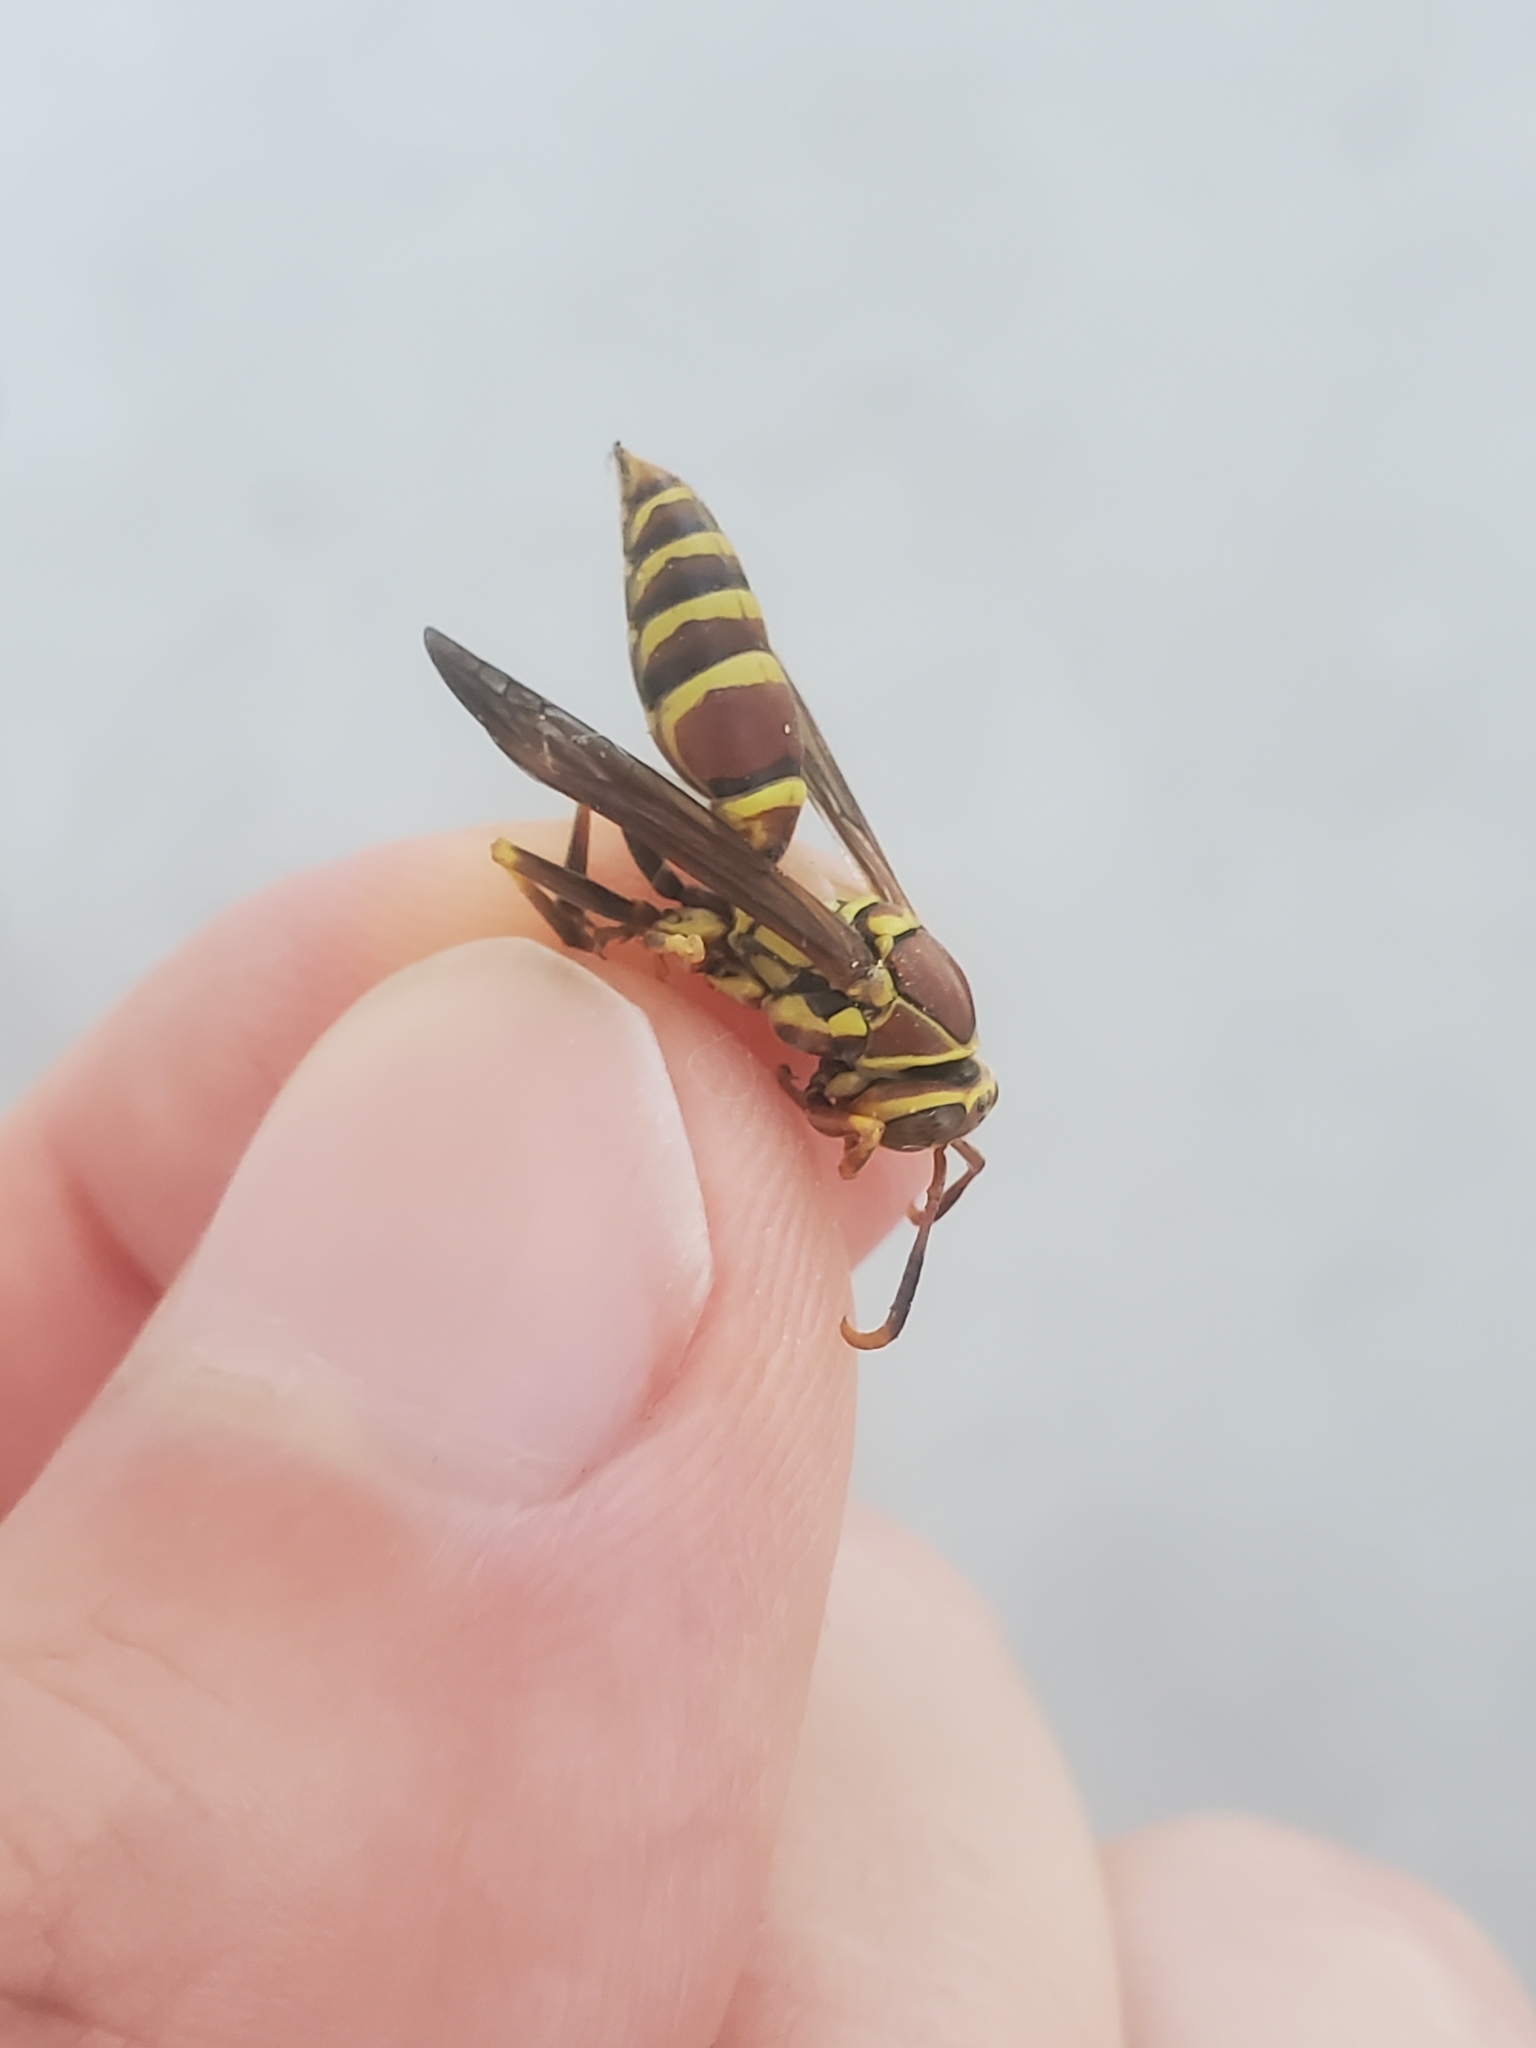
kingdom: Animalia
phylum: Arthropoda
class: Insecta
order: Hymenoptera
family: Eumenidae
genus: Polistes
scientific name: Polistes exclamans
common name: Paper wasp
